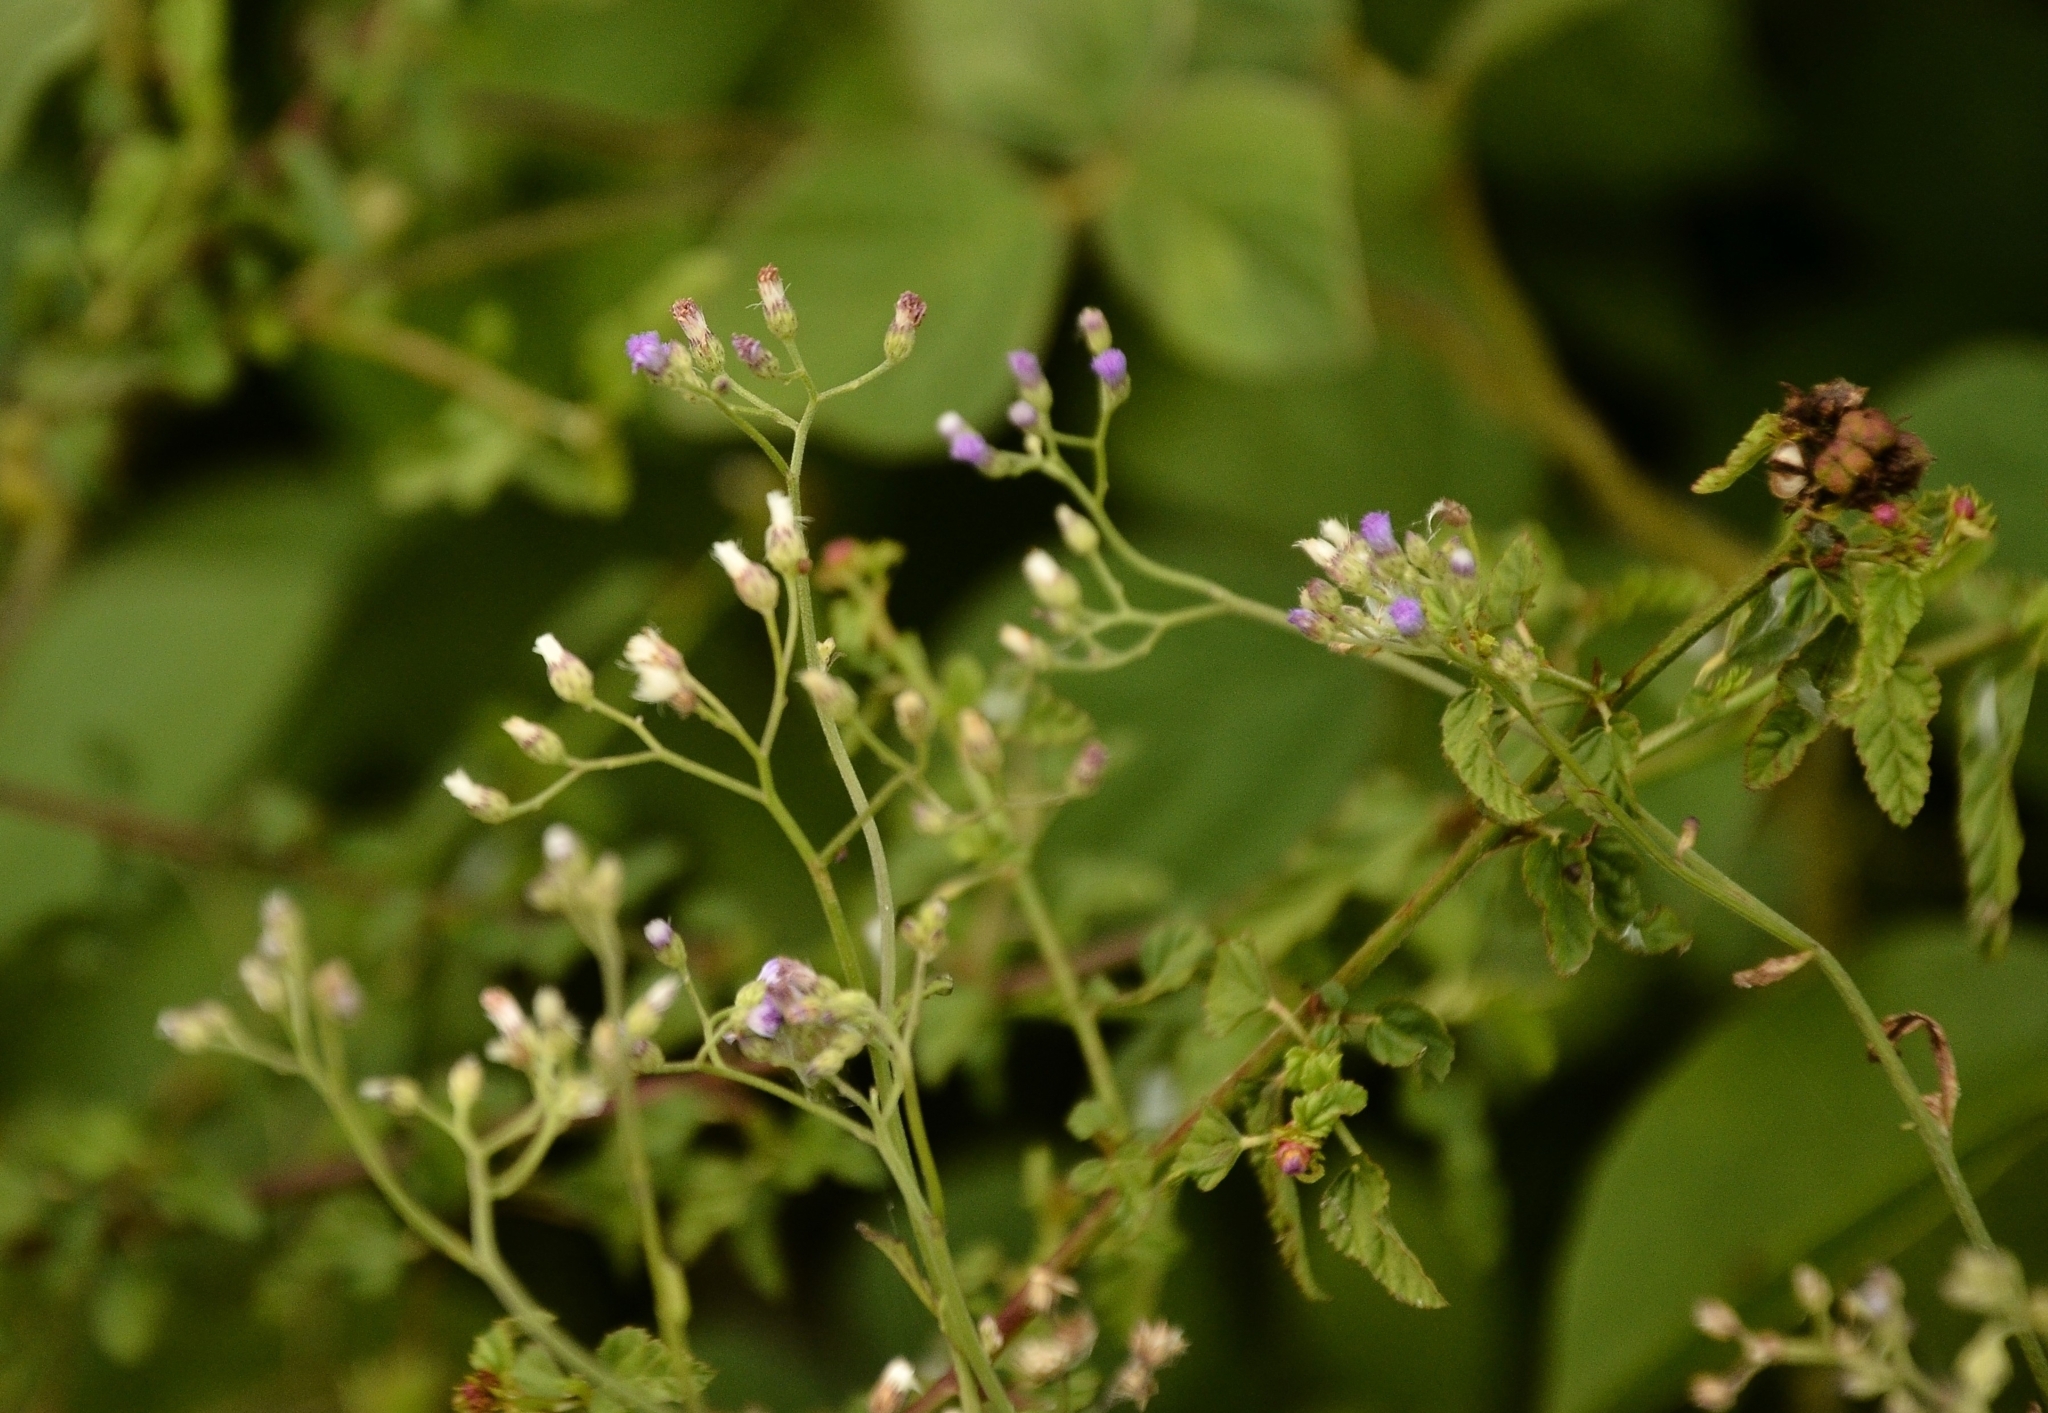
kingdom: Plantae
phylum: Tracheophyta
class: Magnoliopsida
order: Asterales
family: Asteraceae
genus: Cyanthillium
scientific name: Cyanthillium cinereum
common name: Little ironweed
